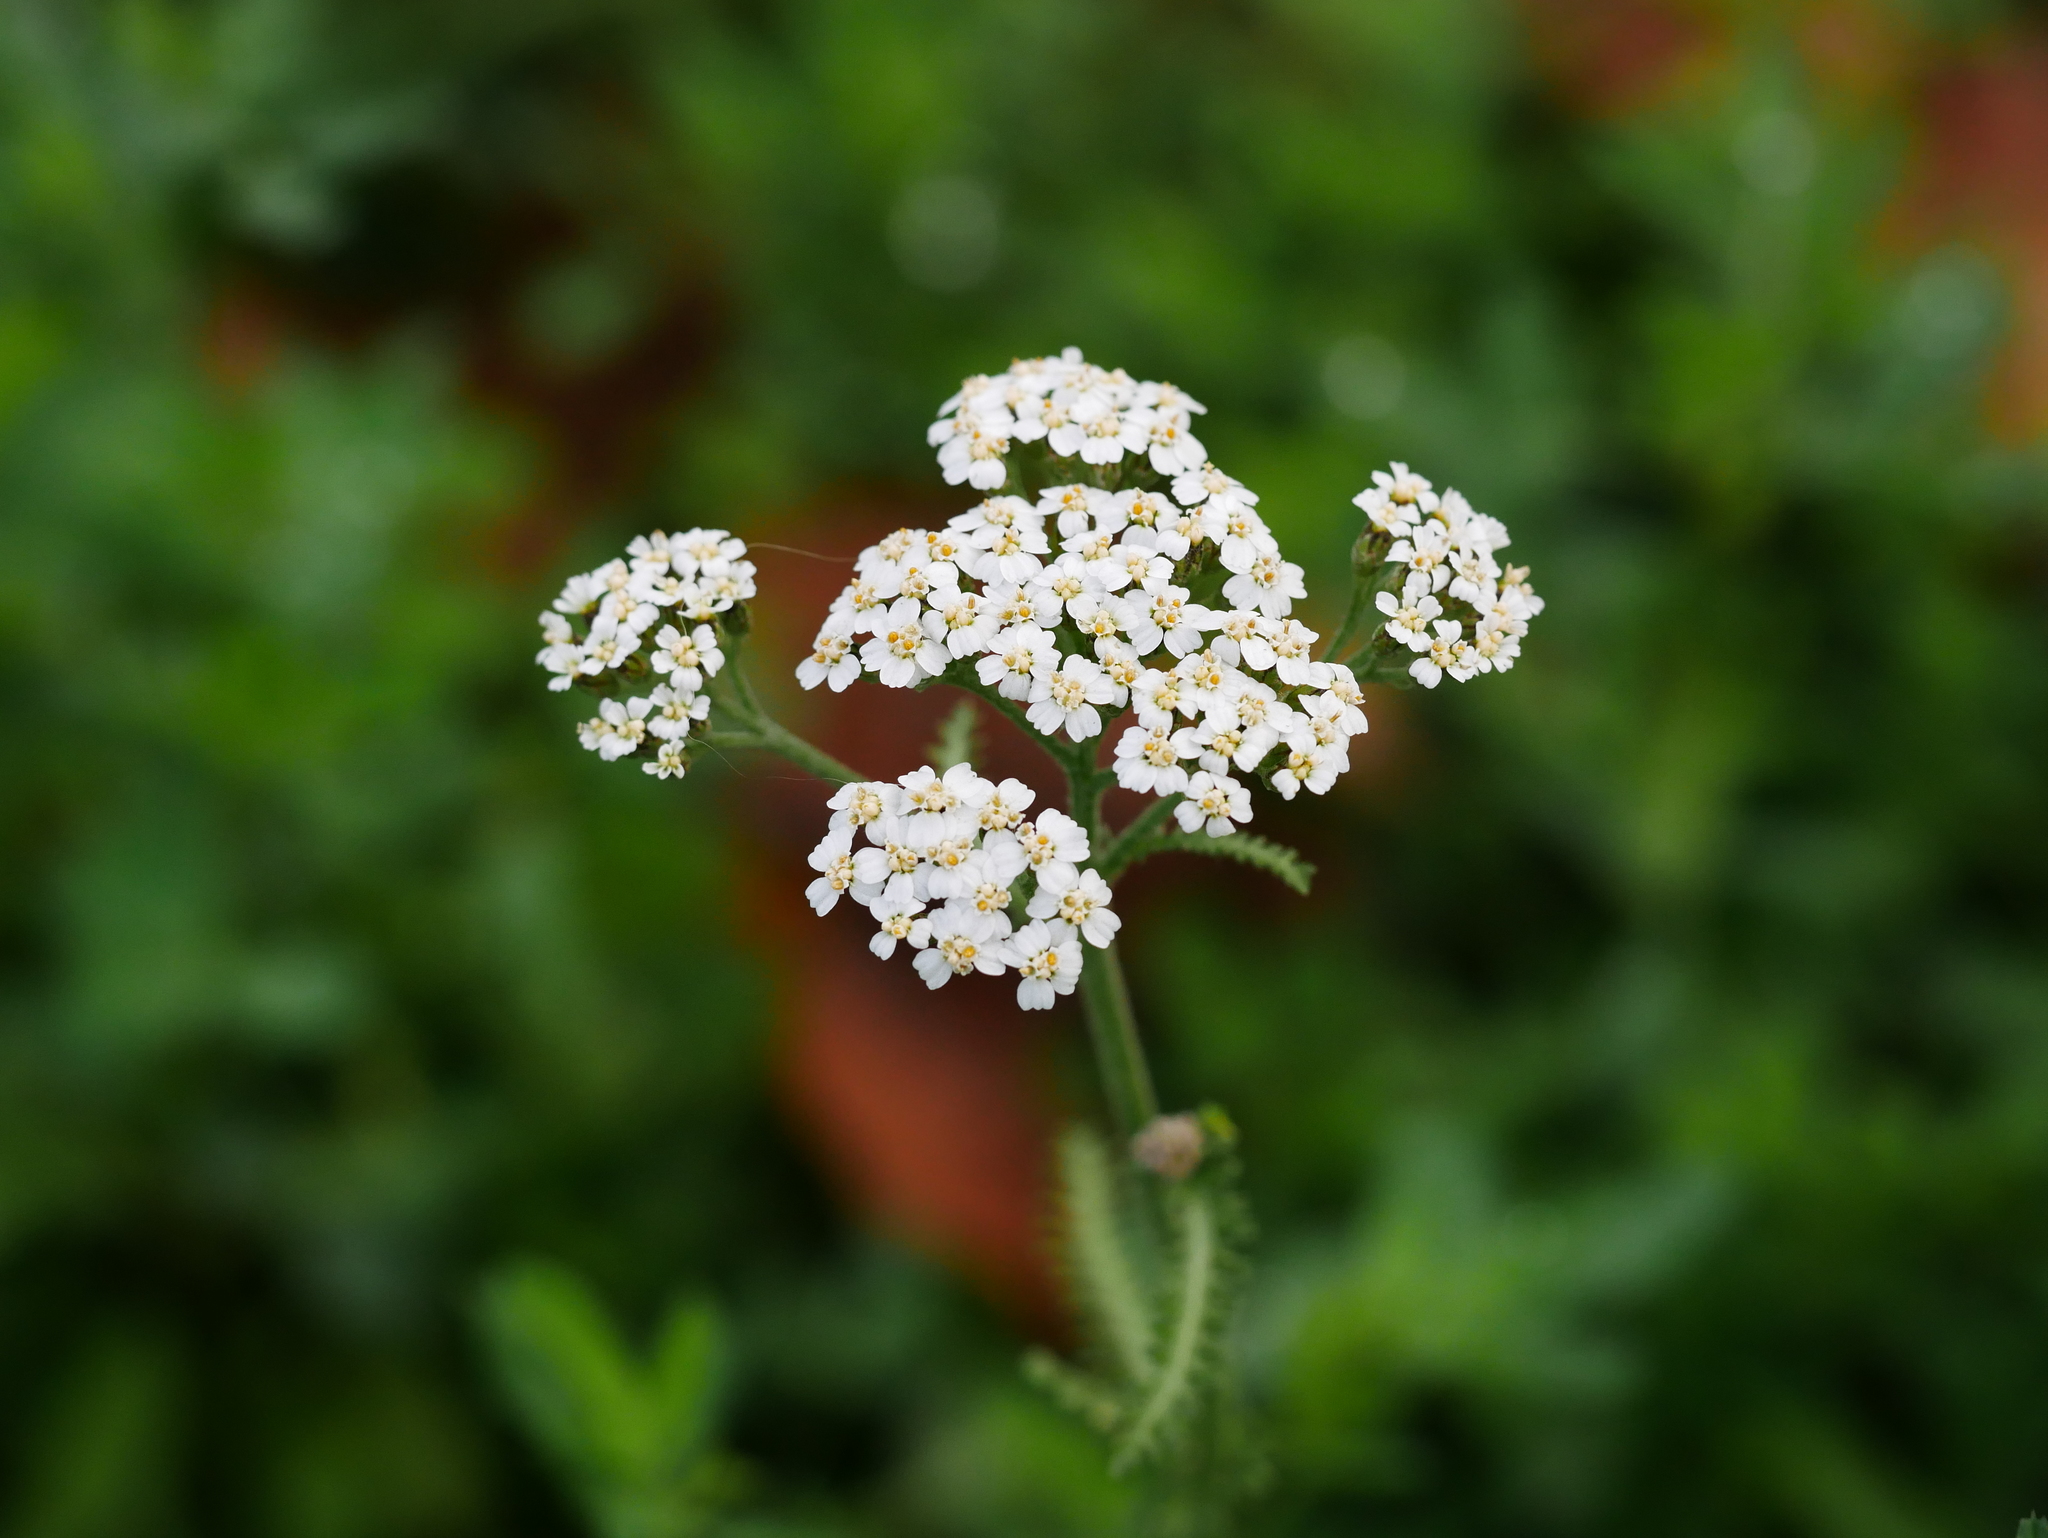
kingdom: Plantae
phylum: Tracheophyta
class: Magnoliopsida
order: Asterales
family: Asteraceae
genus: Achillea
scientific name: Achillea millefolium
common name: Yarrow
